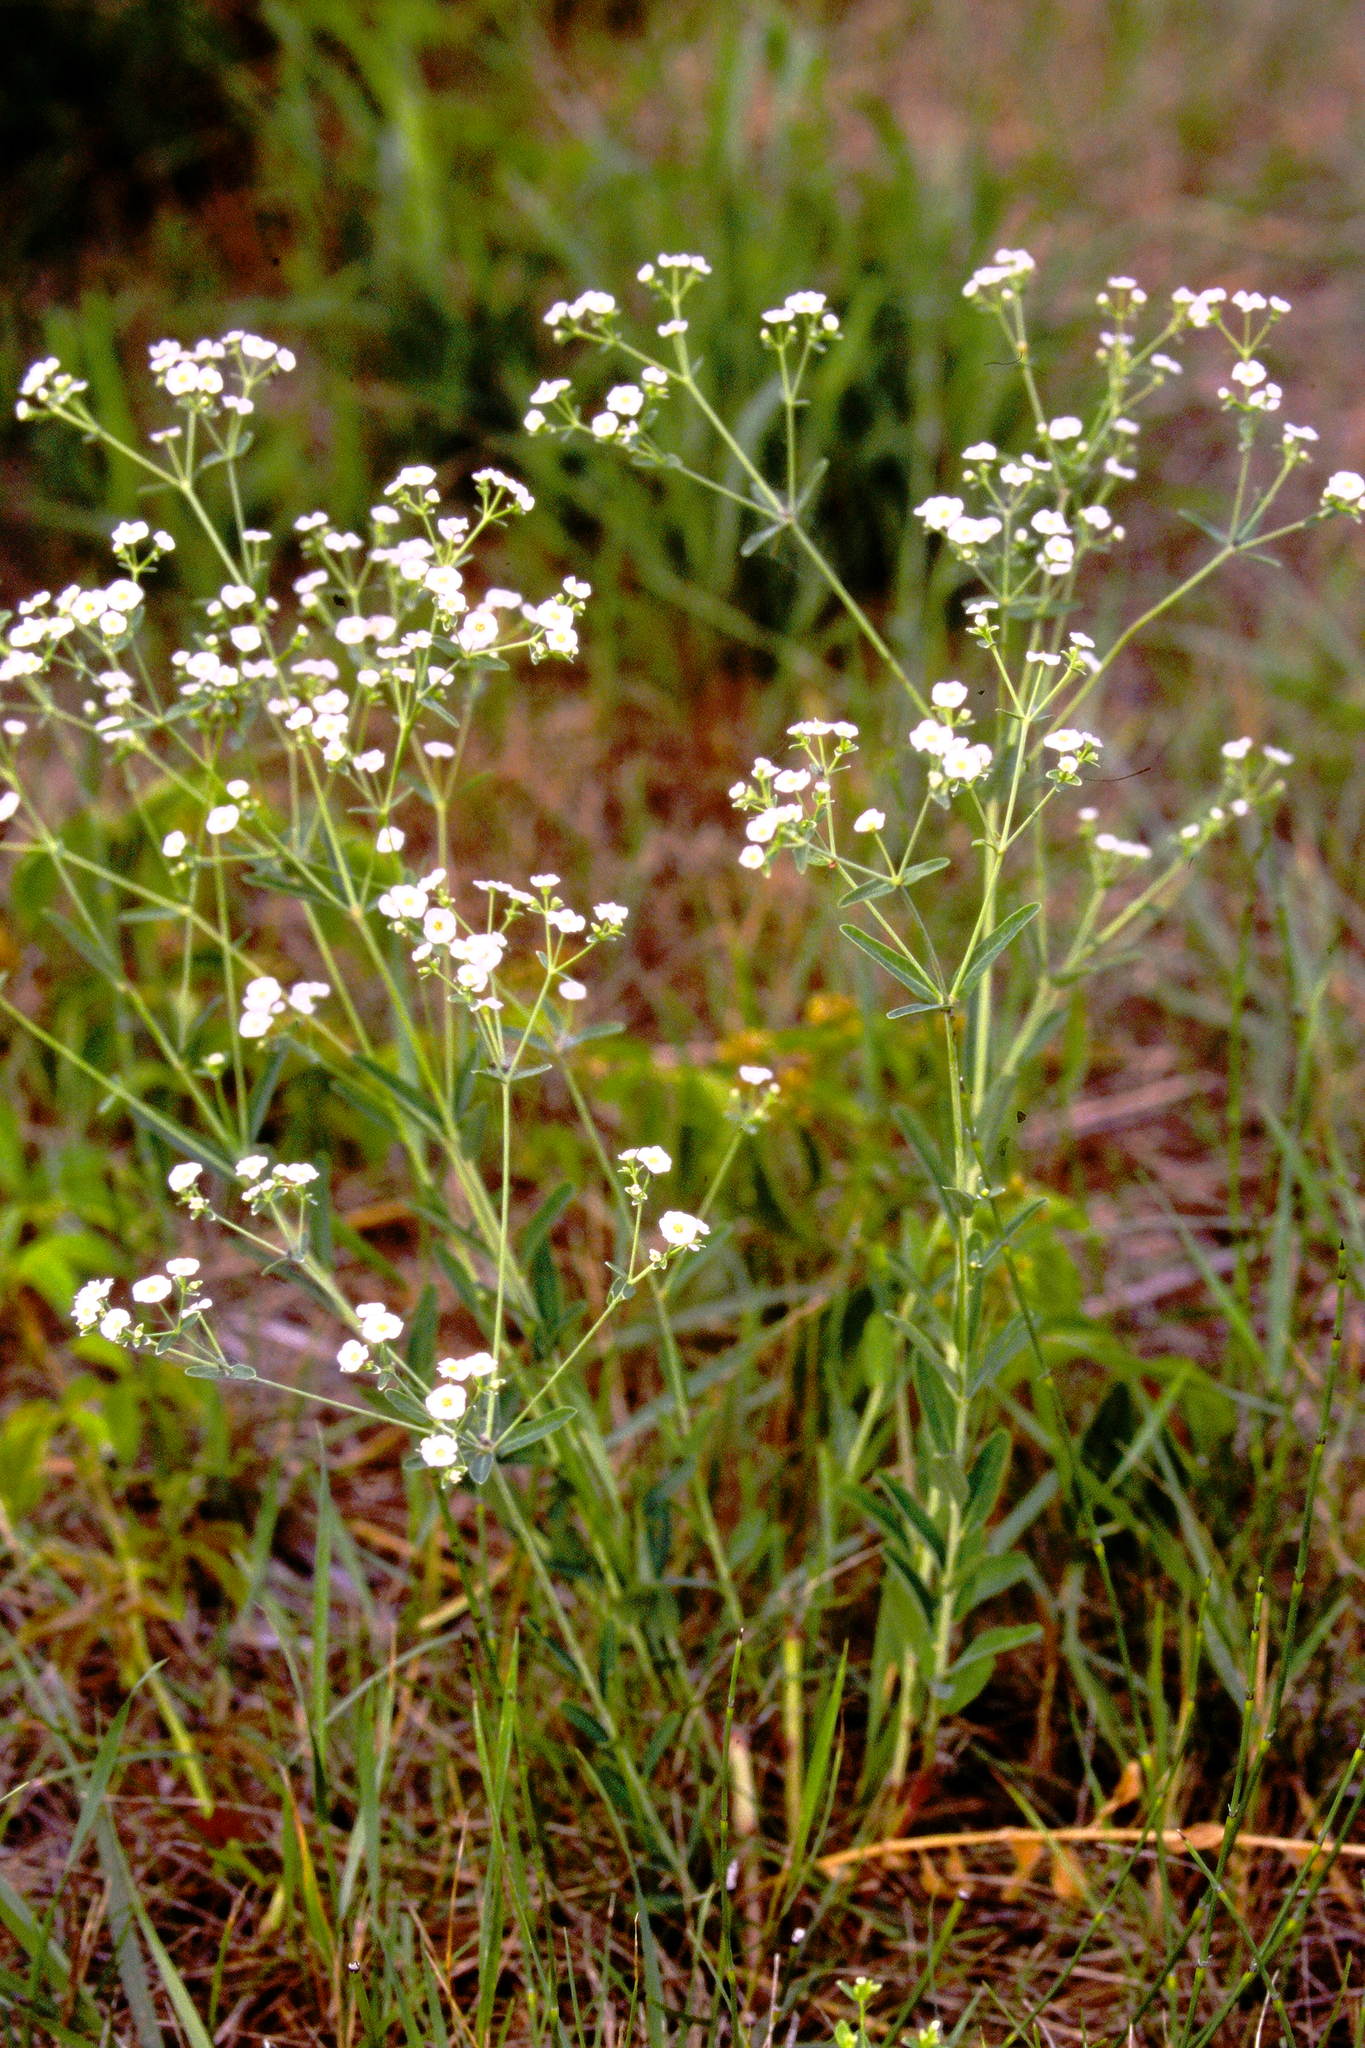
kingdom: Plantae
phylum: Tracheophyta
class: Magnoliopsida
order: Malpighiales
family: Euphorbiaceae
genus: Euphorbia
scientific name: Euphorbia corollata
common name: Flowering spurge
